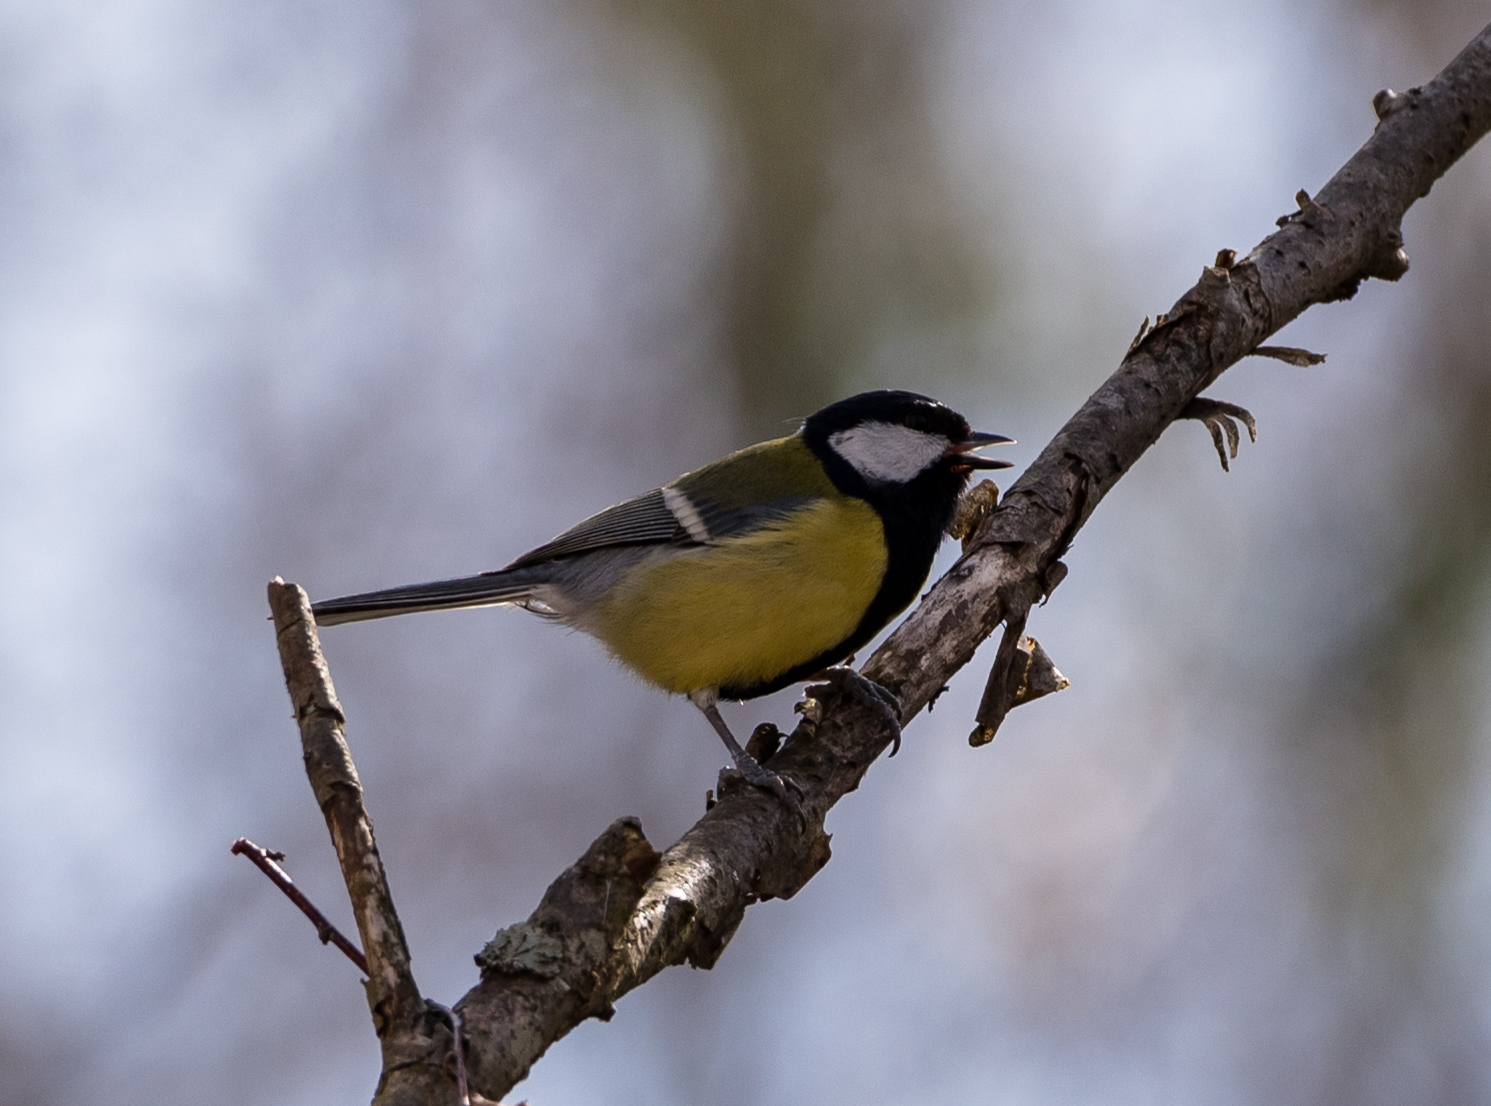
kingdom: Animalia
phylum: Chordata
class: Aves
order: Passeriformes
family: Paridae
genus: Parus
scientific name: Parus major
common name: Great tit
